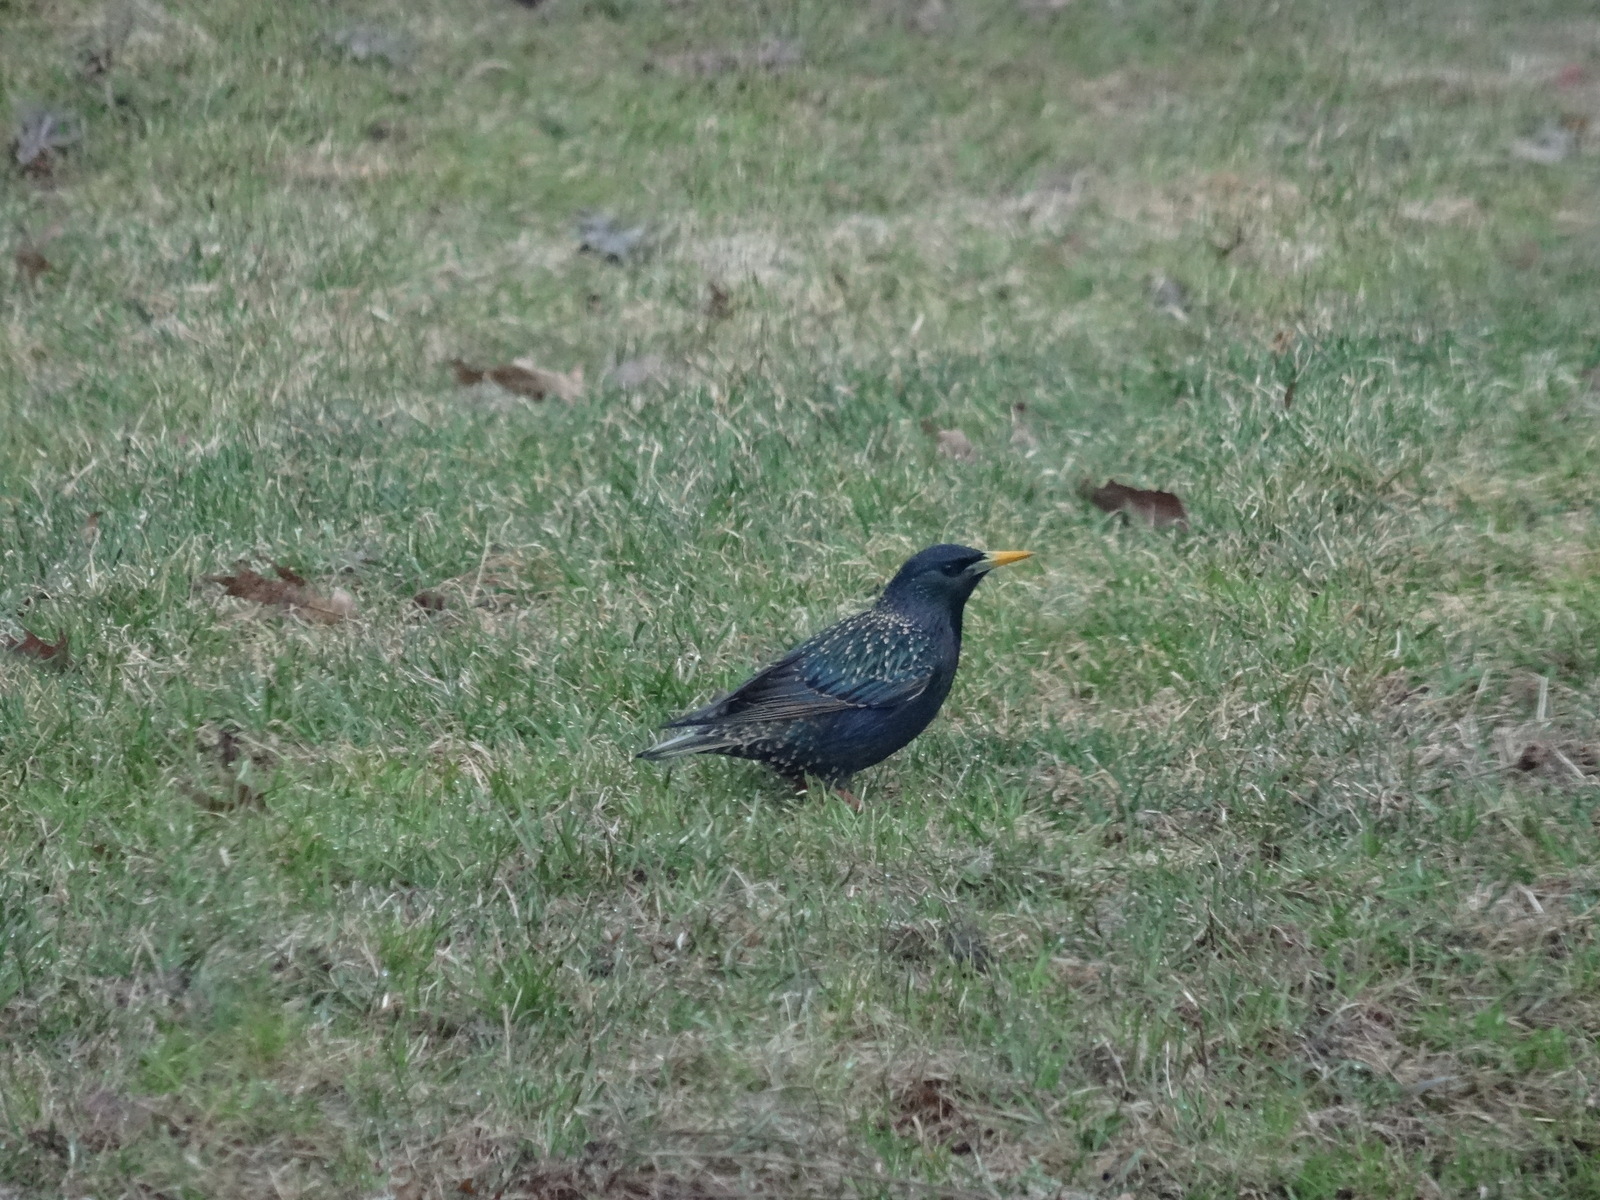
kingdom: Animalia
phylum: Chordata
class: Aves
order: Passeriformes
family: Sturnidae
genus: Sturnus
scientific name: Sturnus vulgaris
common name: Common starling
